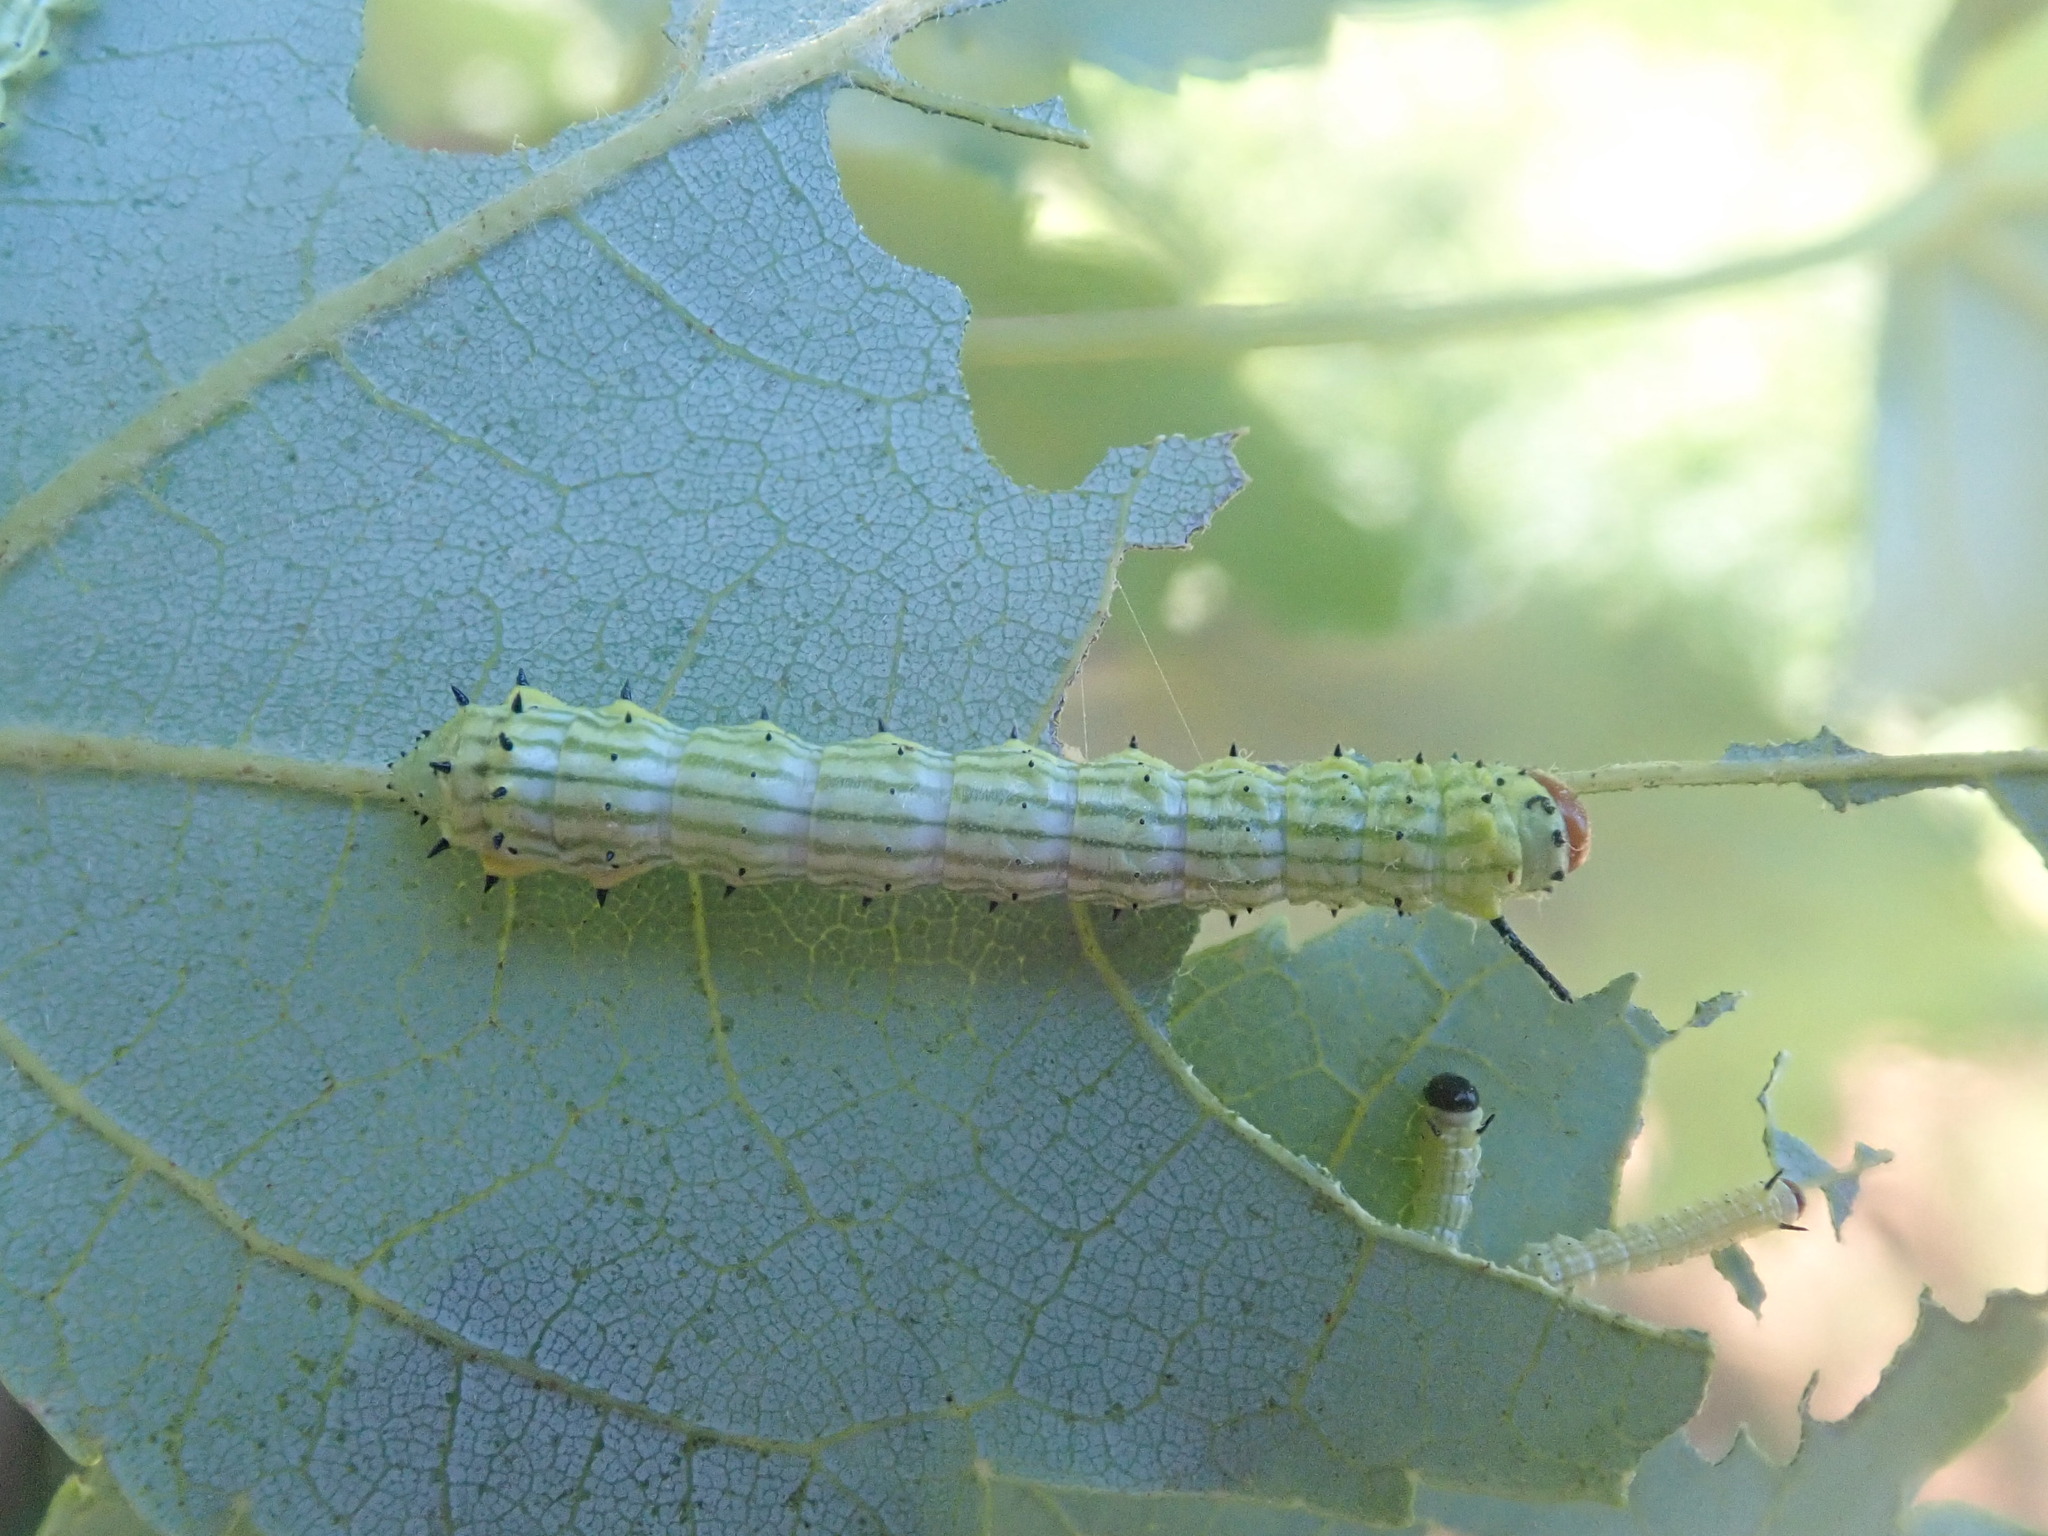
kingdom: Animalia
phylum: Arthropoda
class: Insecta
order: Lepidoptera
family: Saturniidae
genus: Dryocampa
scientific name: Dryocampa rubicunda
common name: Rosy maple moth
